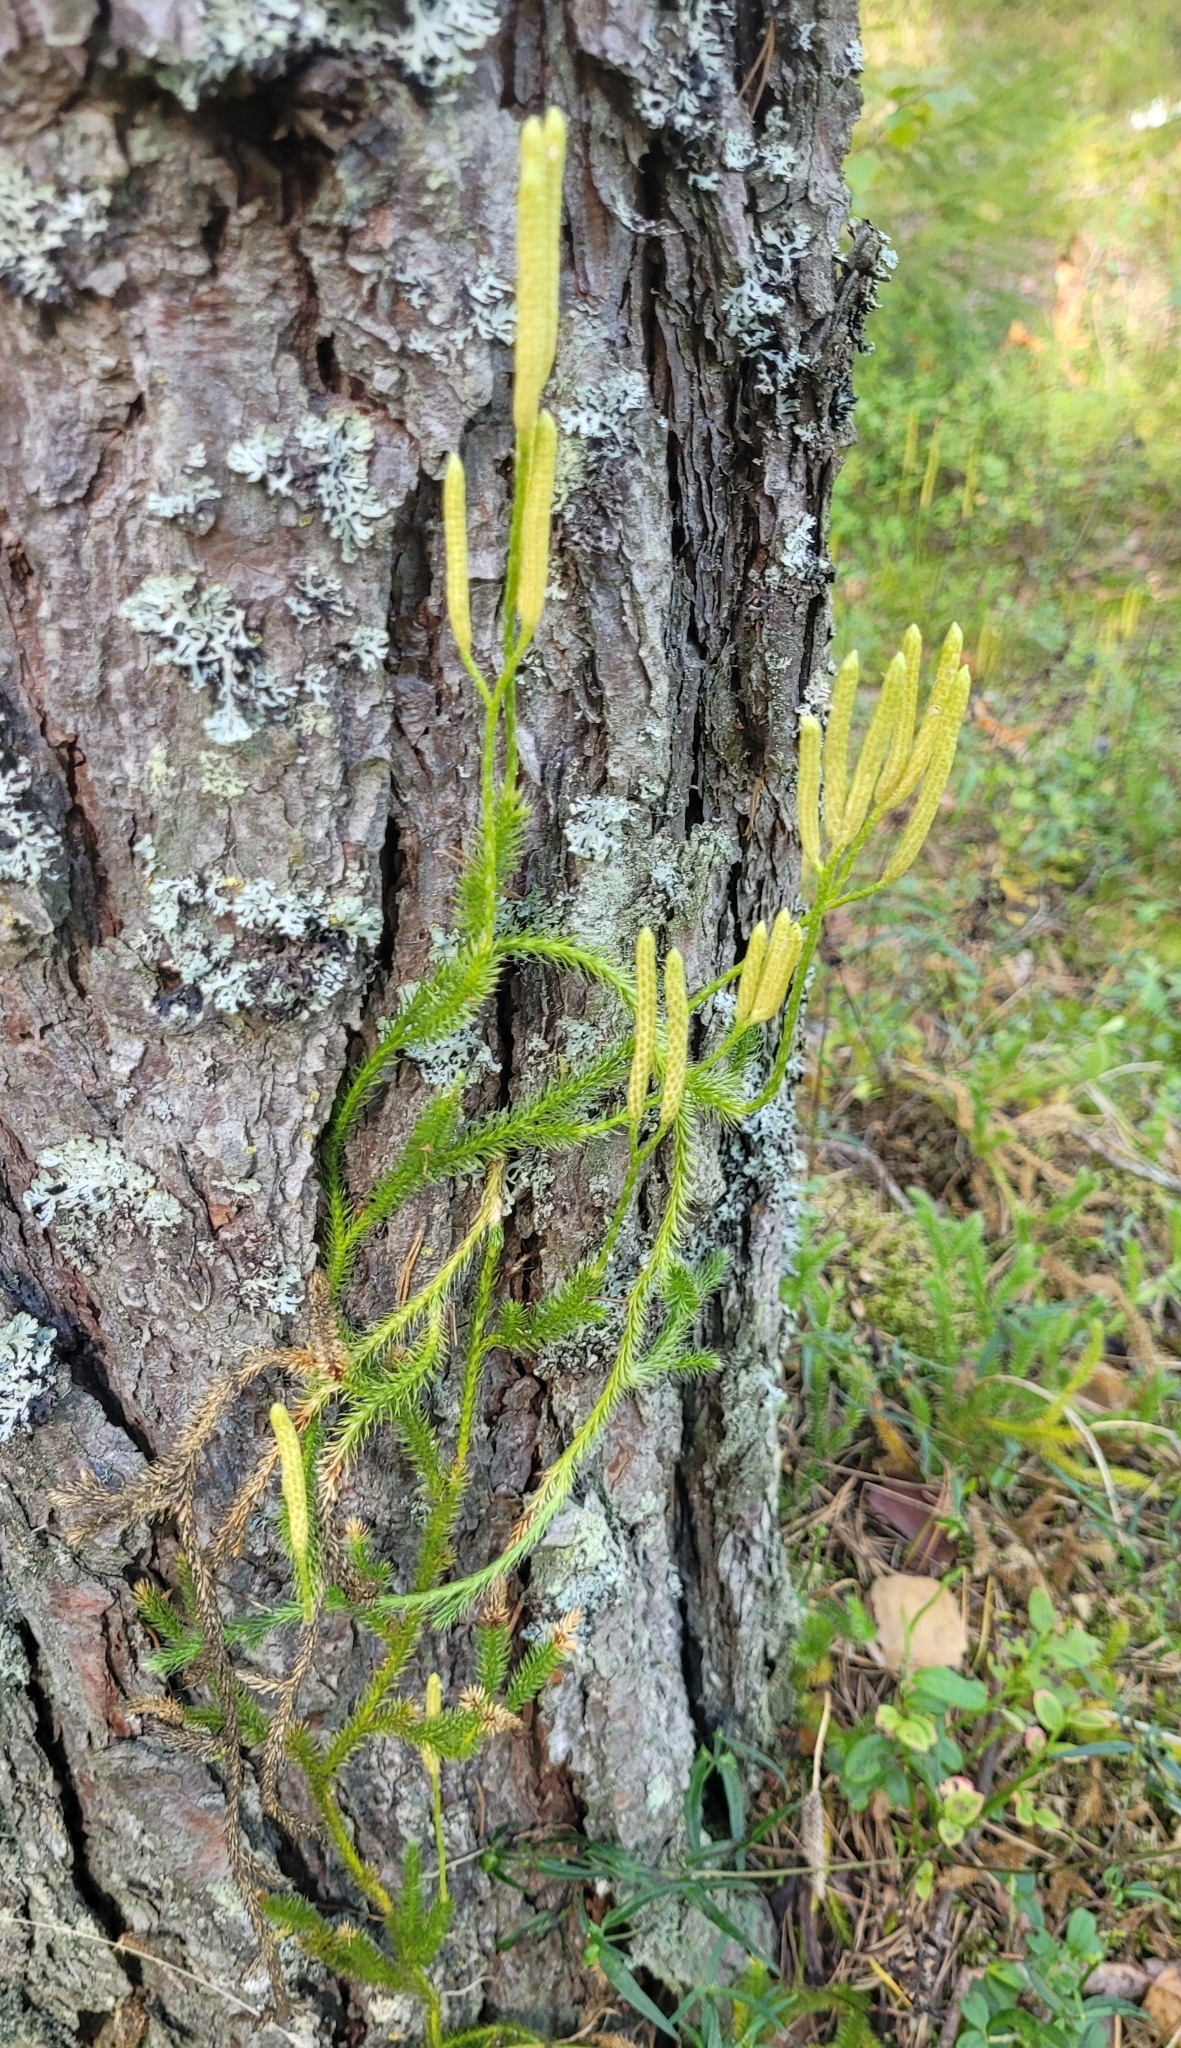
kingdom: Plantae
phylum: Tracheophyta
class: Lycopodiopsida
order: Lycopodiales
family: Lycopodiaceae
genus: Lycopodium
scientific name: Lycopodium clavatum
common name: Stag's-horn clubmoss
